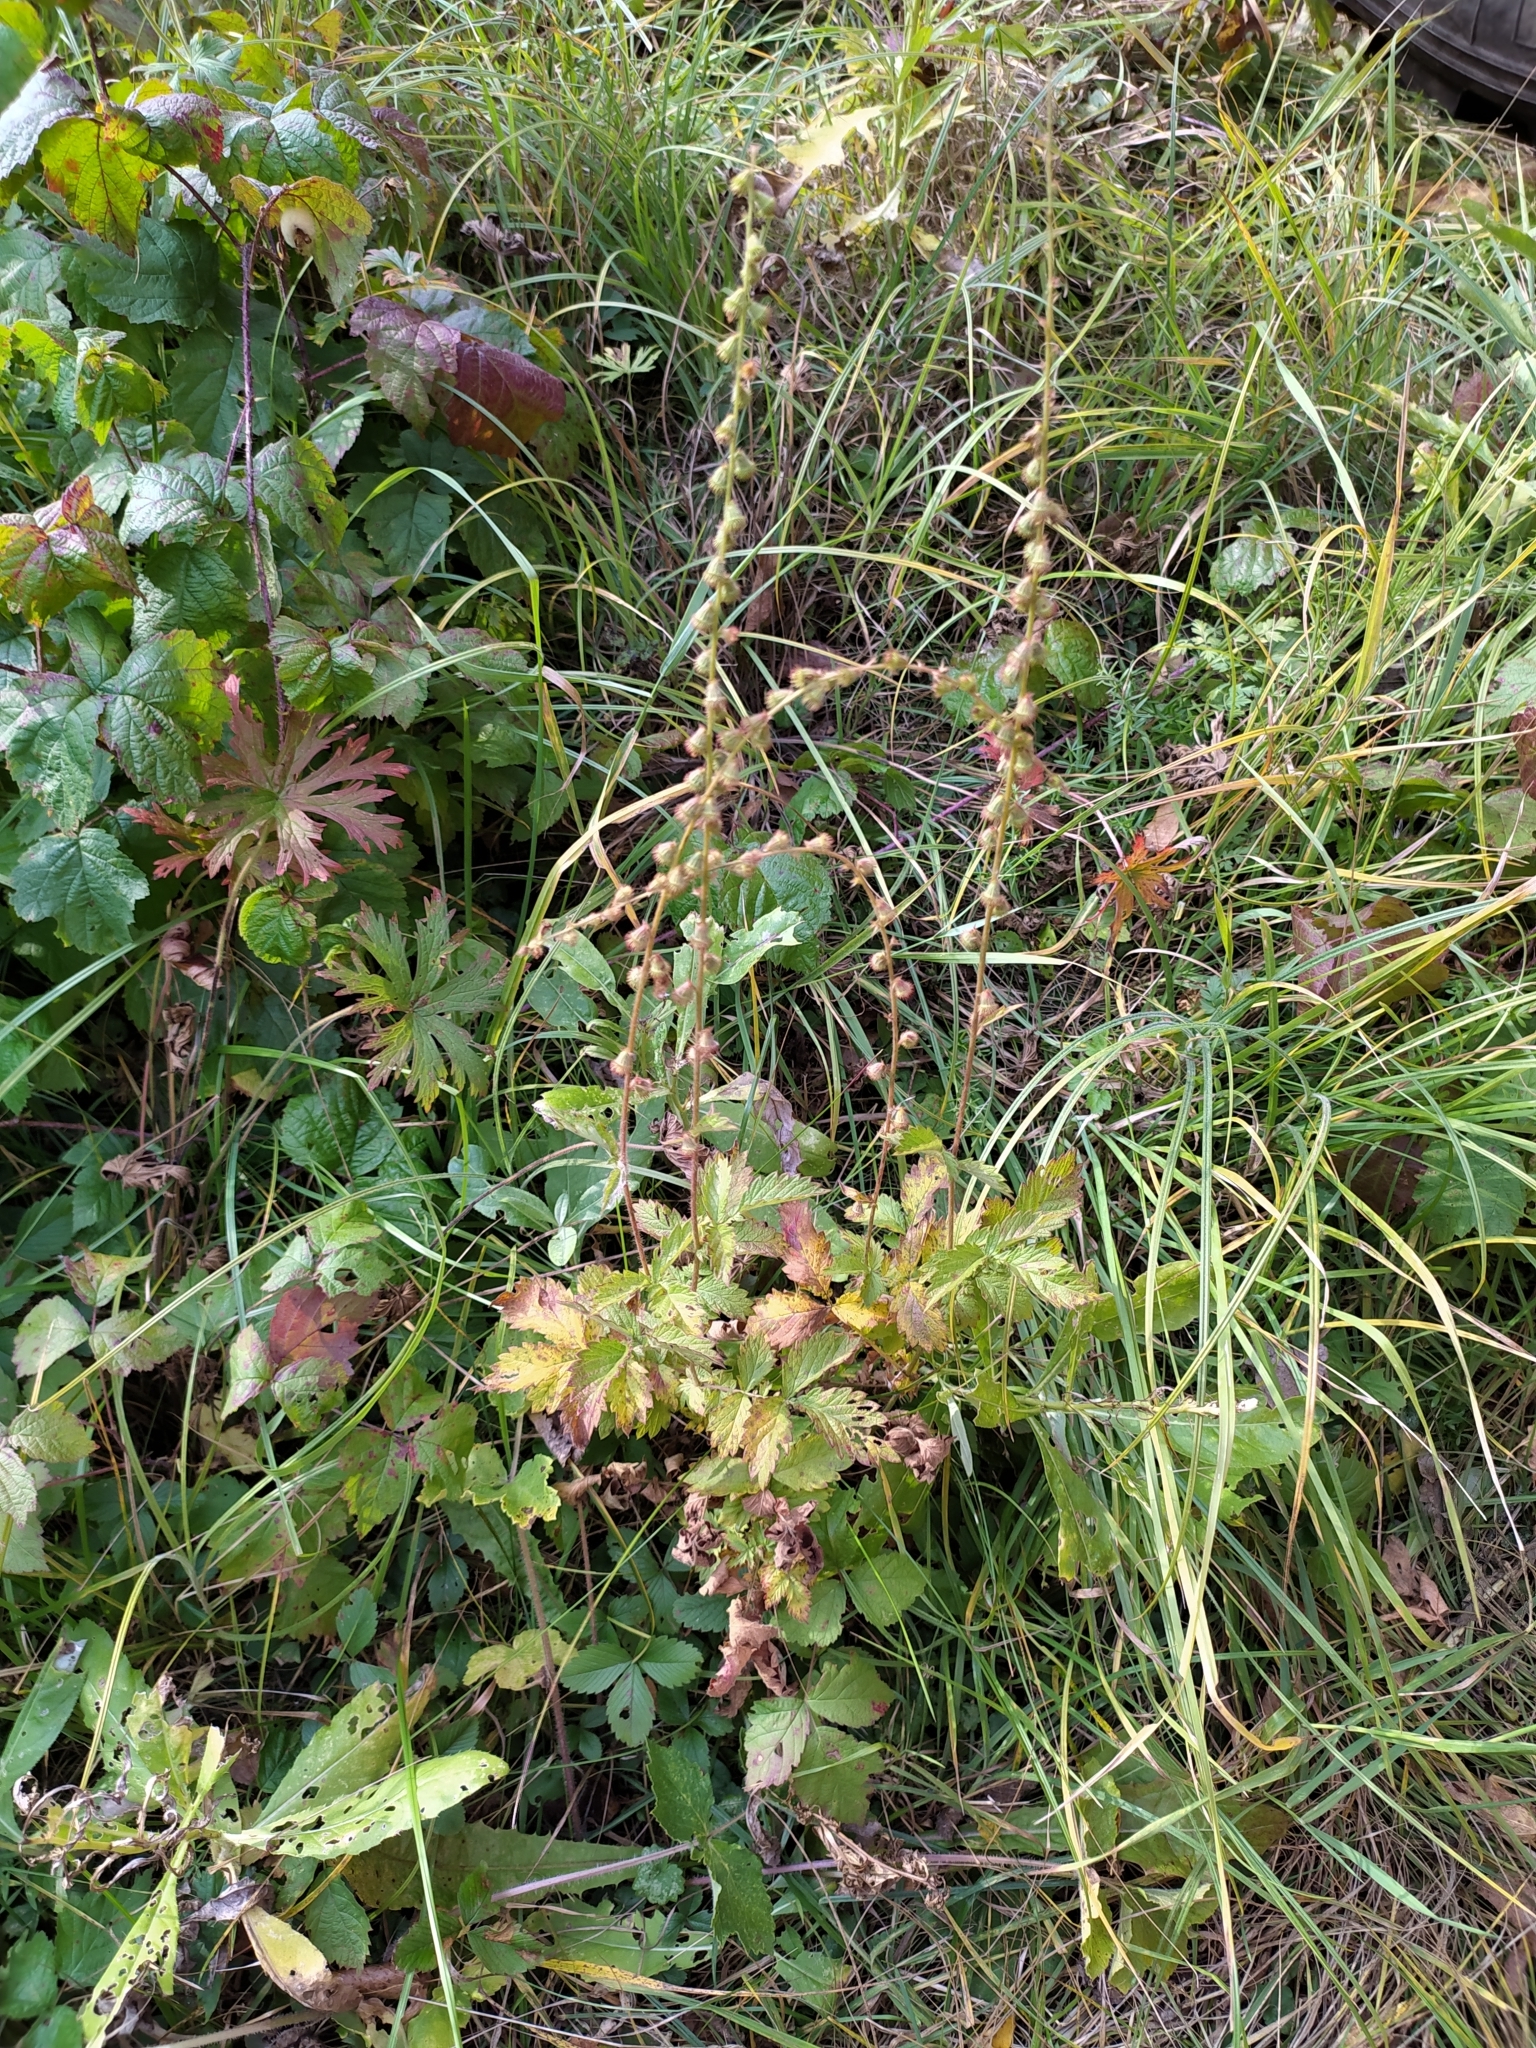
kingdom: Plantae
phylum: Tracheophyta
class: Magnoliopsida
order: Rosales
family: Rosaceae
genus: Agrimonia
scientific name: Agrimonia eupatoria
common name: Agrimony
